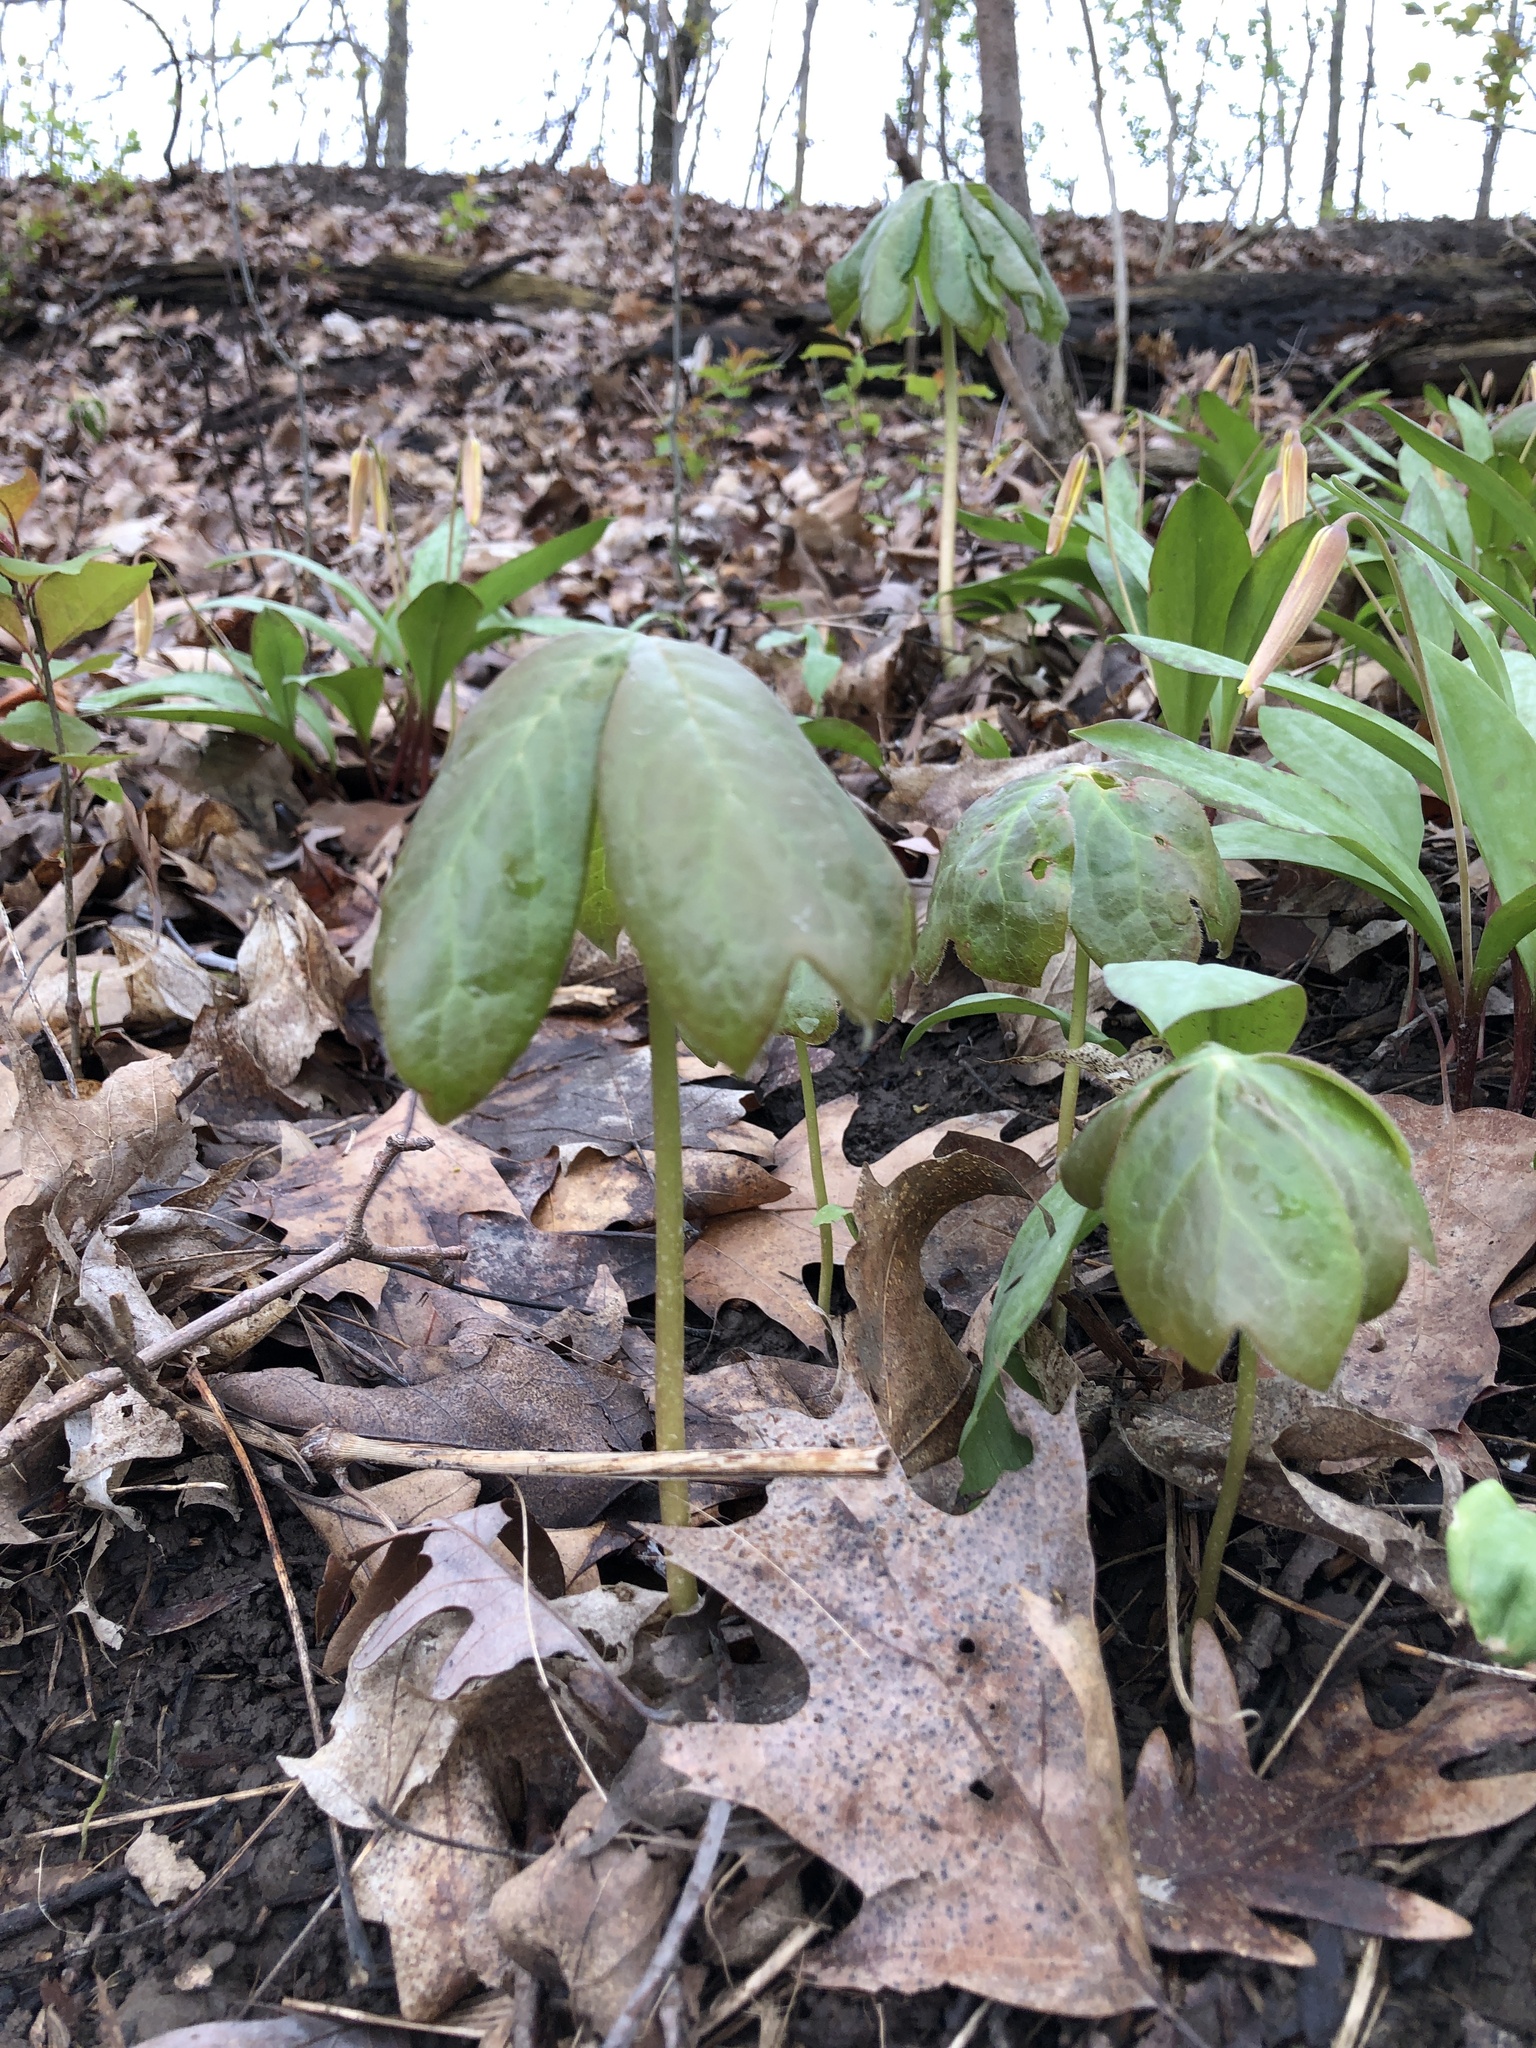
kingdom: Plantae
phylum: Tracheophyta
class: Magnoliopsida
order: Ranunculales
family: Berberidaceae
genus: Podophyllum
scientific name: Podophyllum peltatum
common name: Wild mandrake
